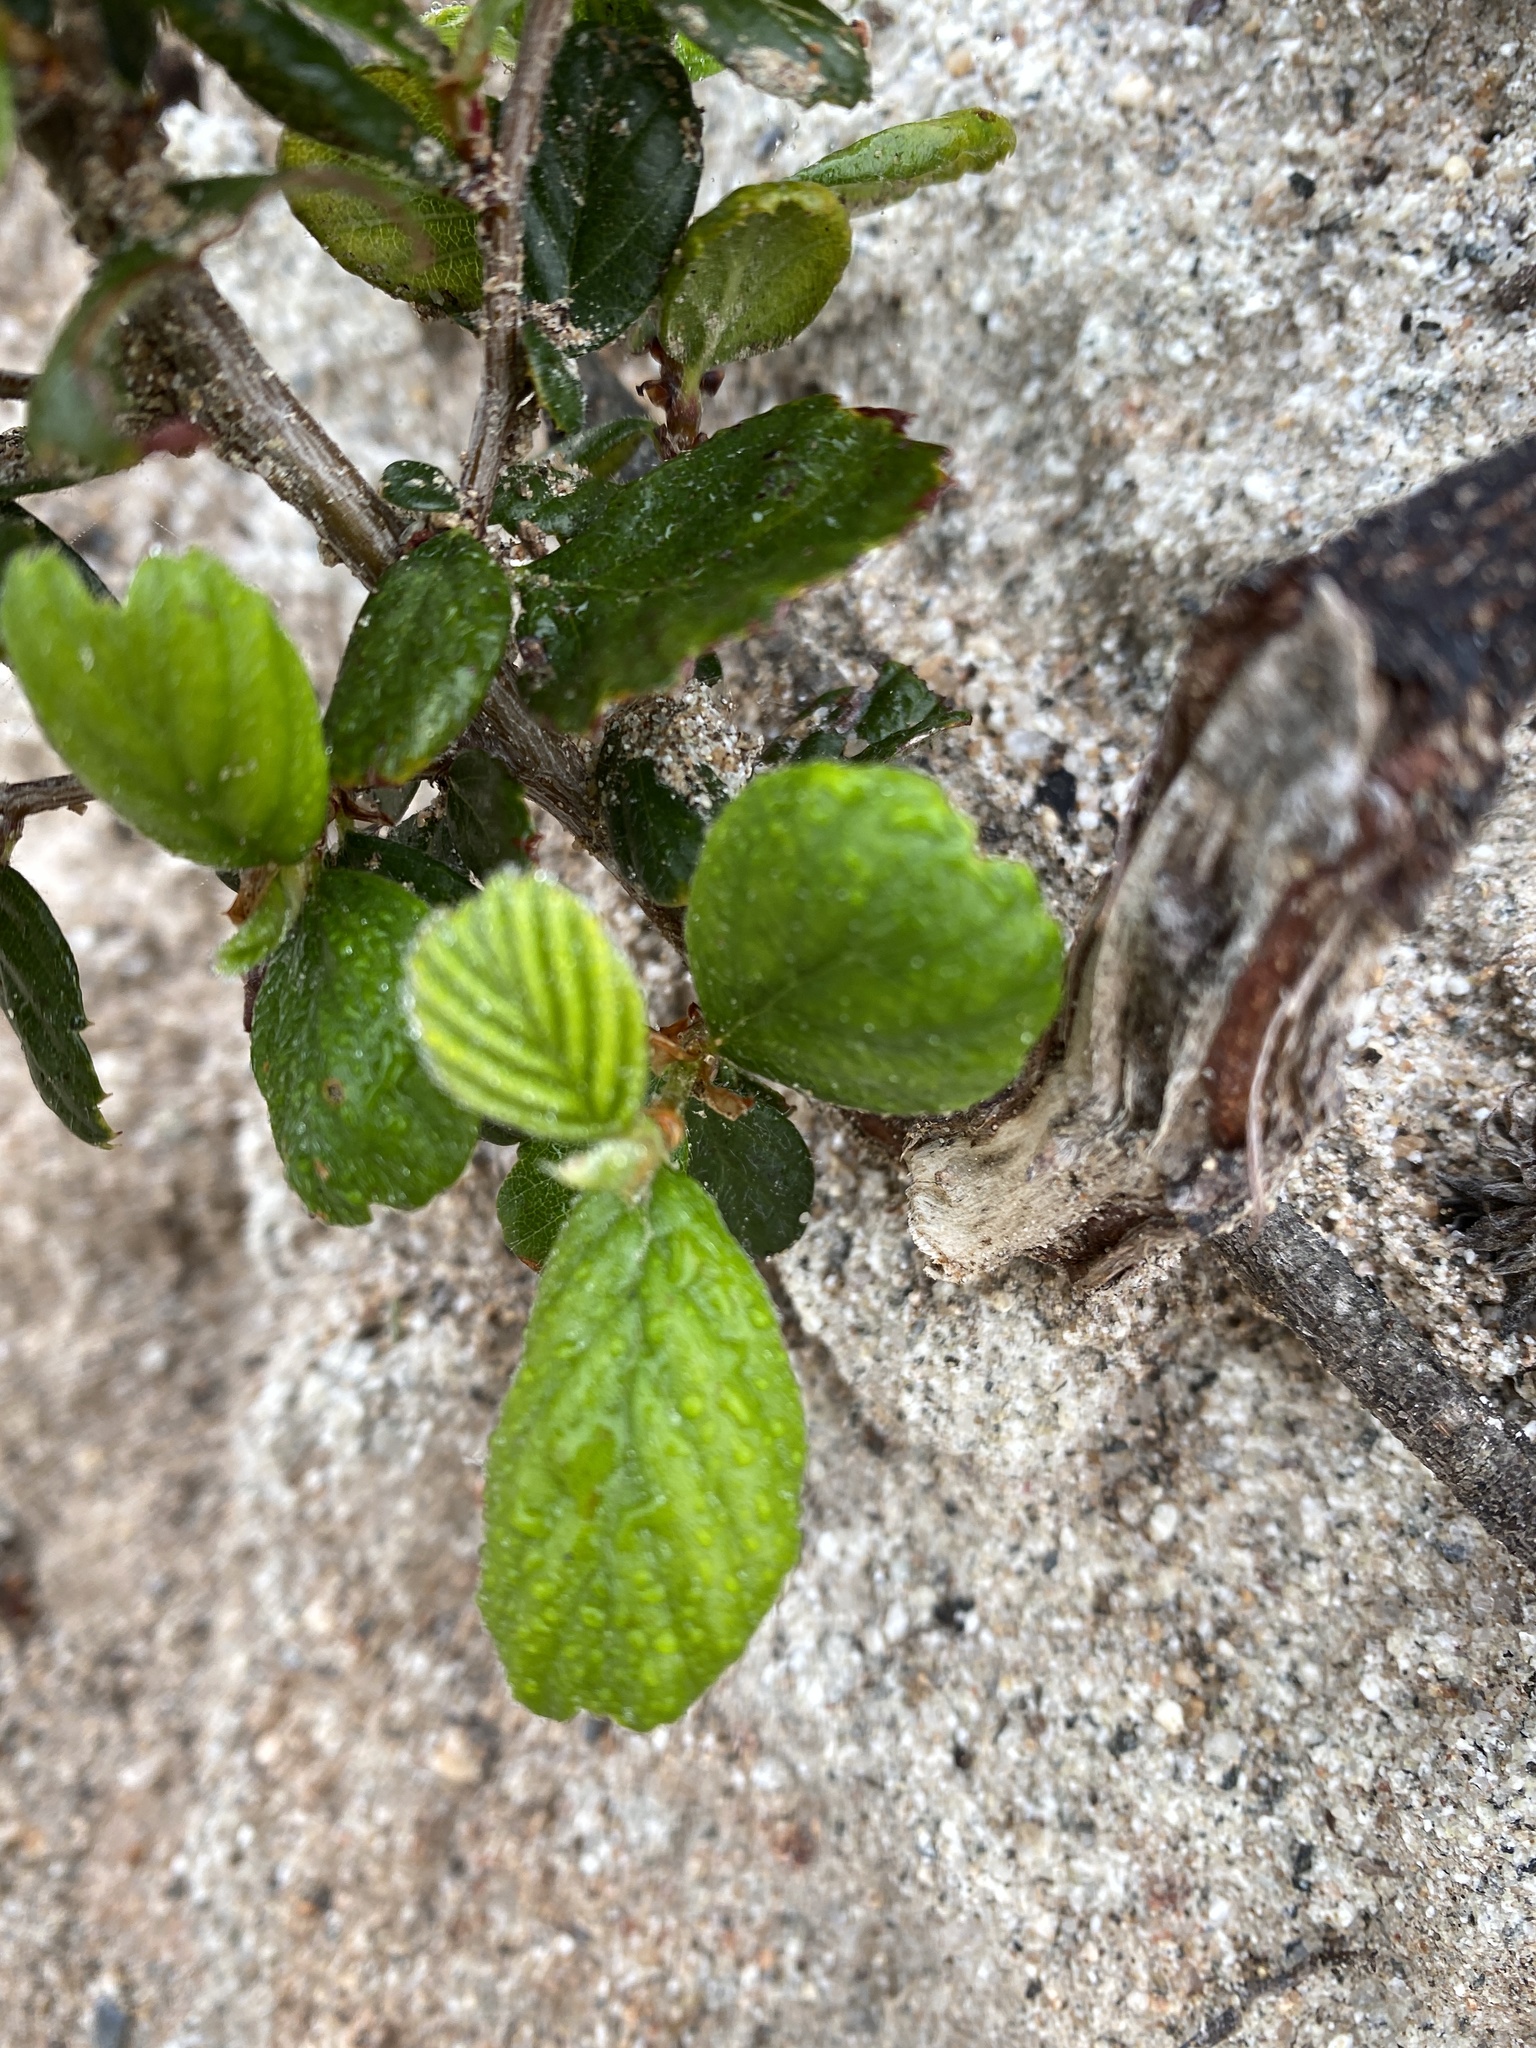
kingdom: Plantae
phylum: Tracheophyta
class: Magnoliopsida
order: Rosales
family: Rosaceae
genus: Cercocarpus
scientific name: Cercocarpus betuloides
